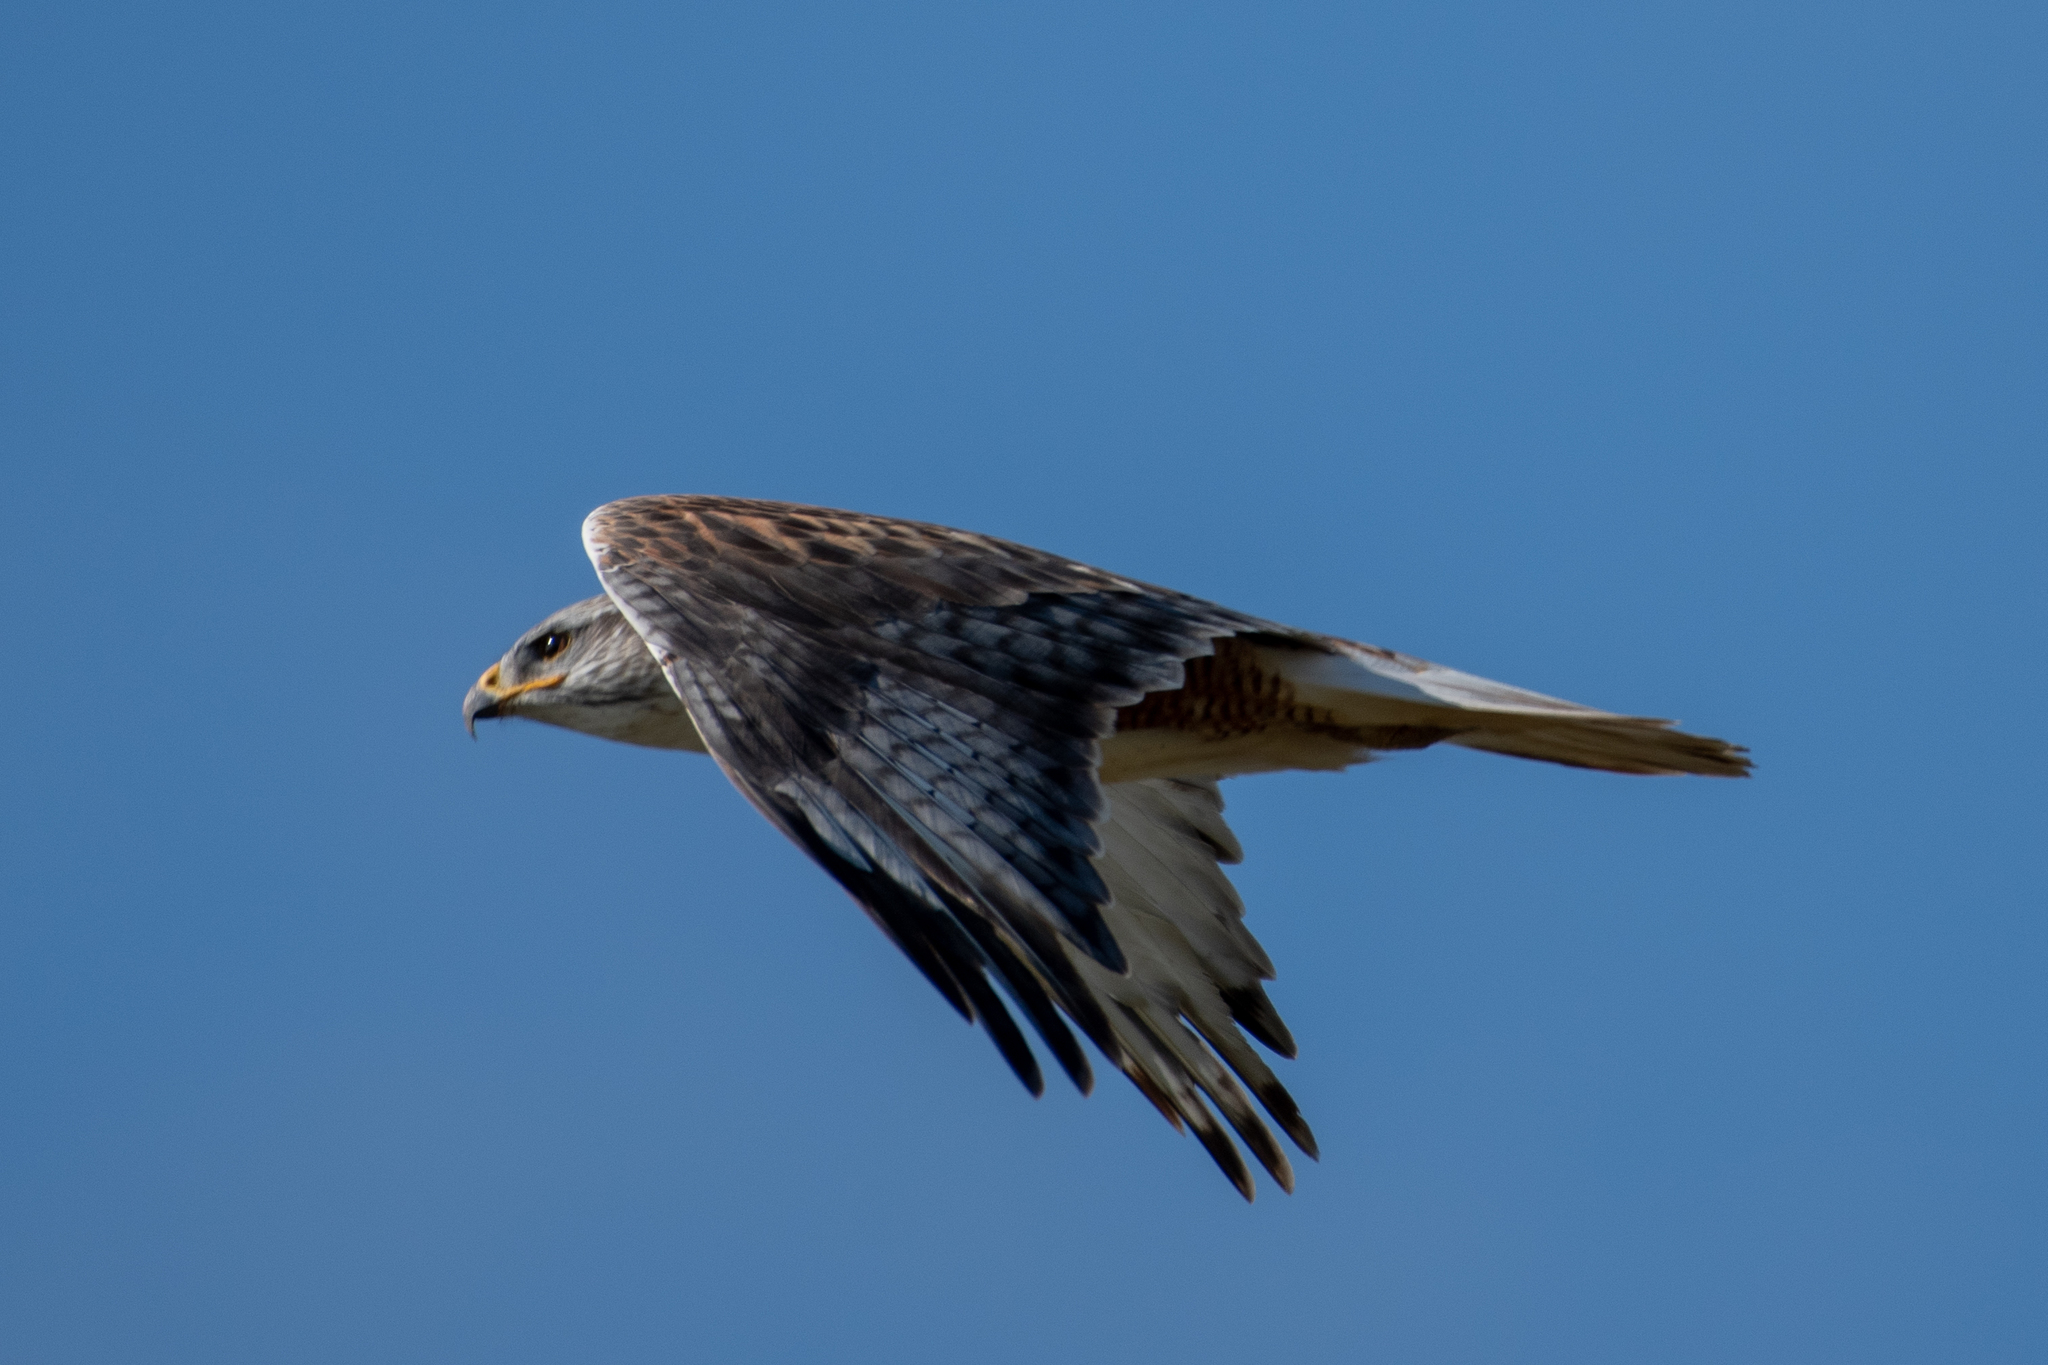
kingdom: Animalia
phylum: Chordata
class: Aves
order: Accipitriformes
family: Accipitridae
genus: Buteo
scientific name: Buteo regalis
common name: Ferruginous hawk
